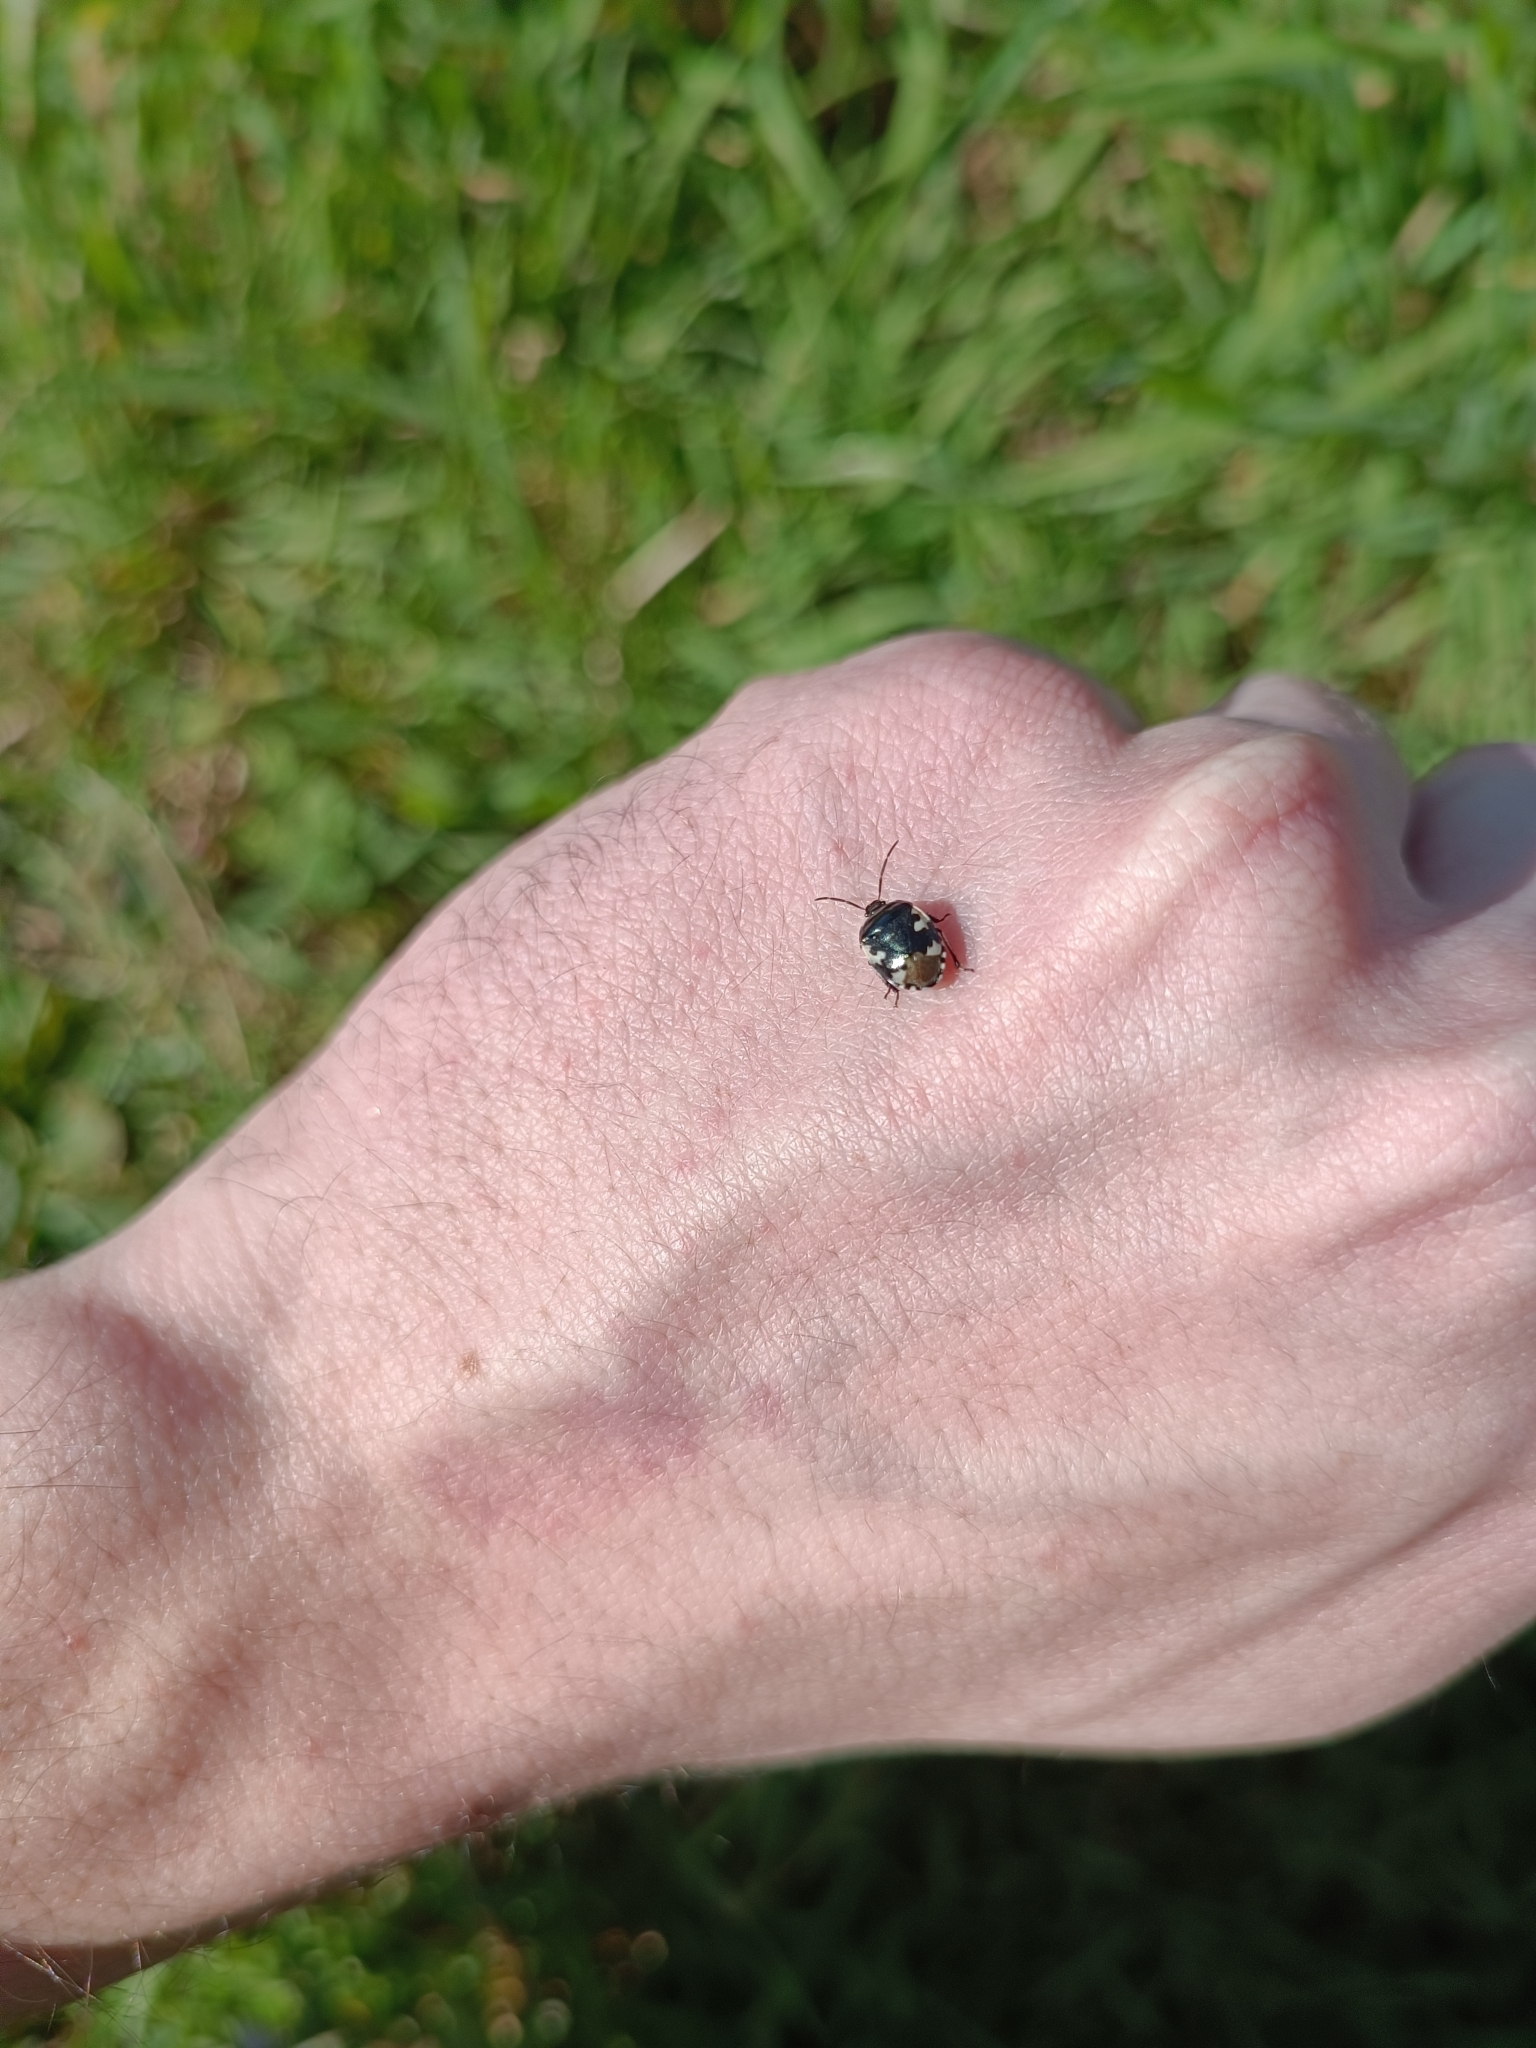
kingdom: Animalia
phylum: Arthropoda
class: Insecta
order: Hemiptera
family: Cydnidae
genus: Tritomegas
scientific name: Tritomegas bicolor
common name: Pied shieldbug
